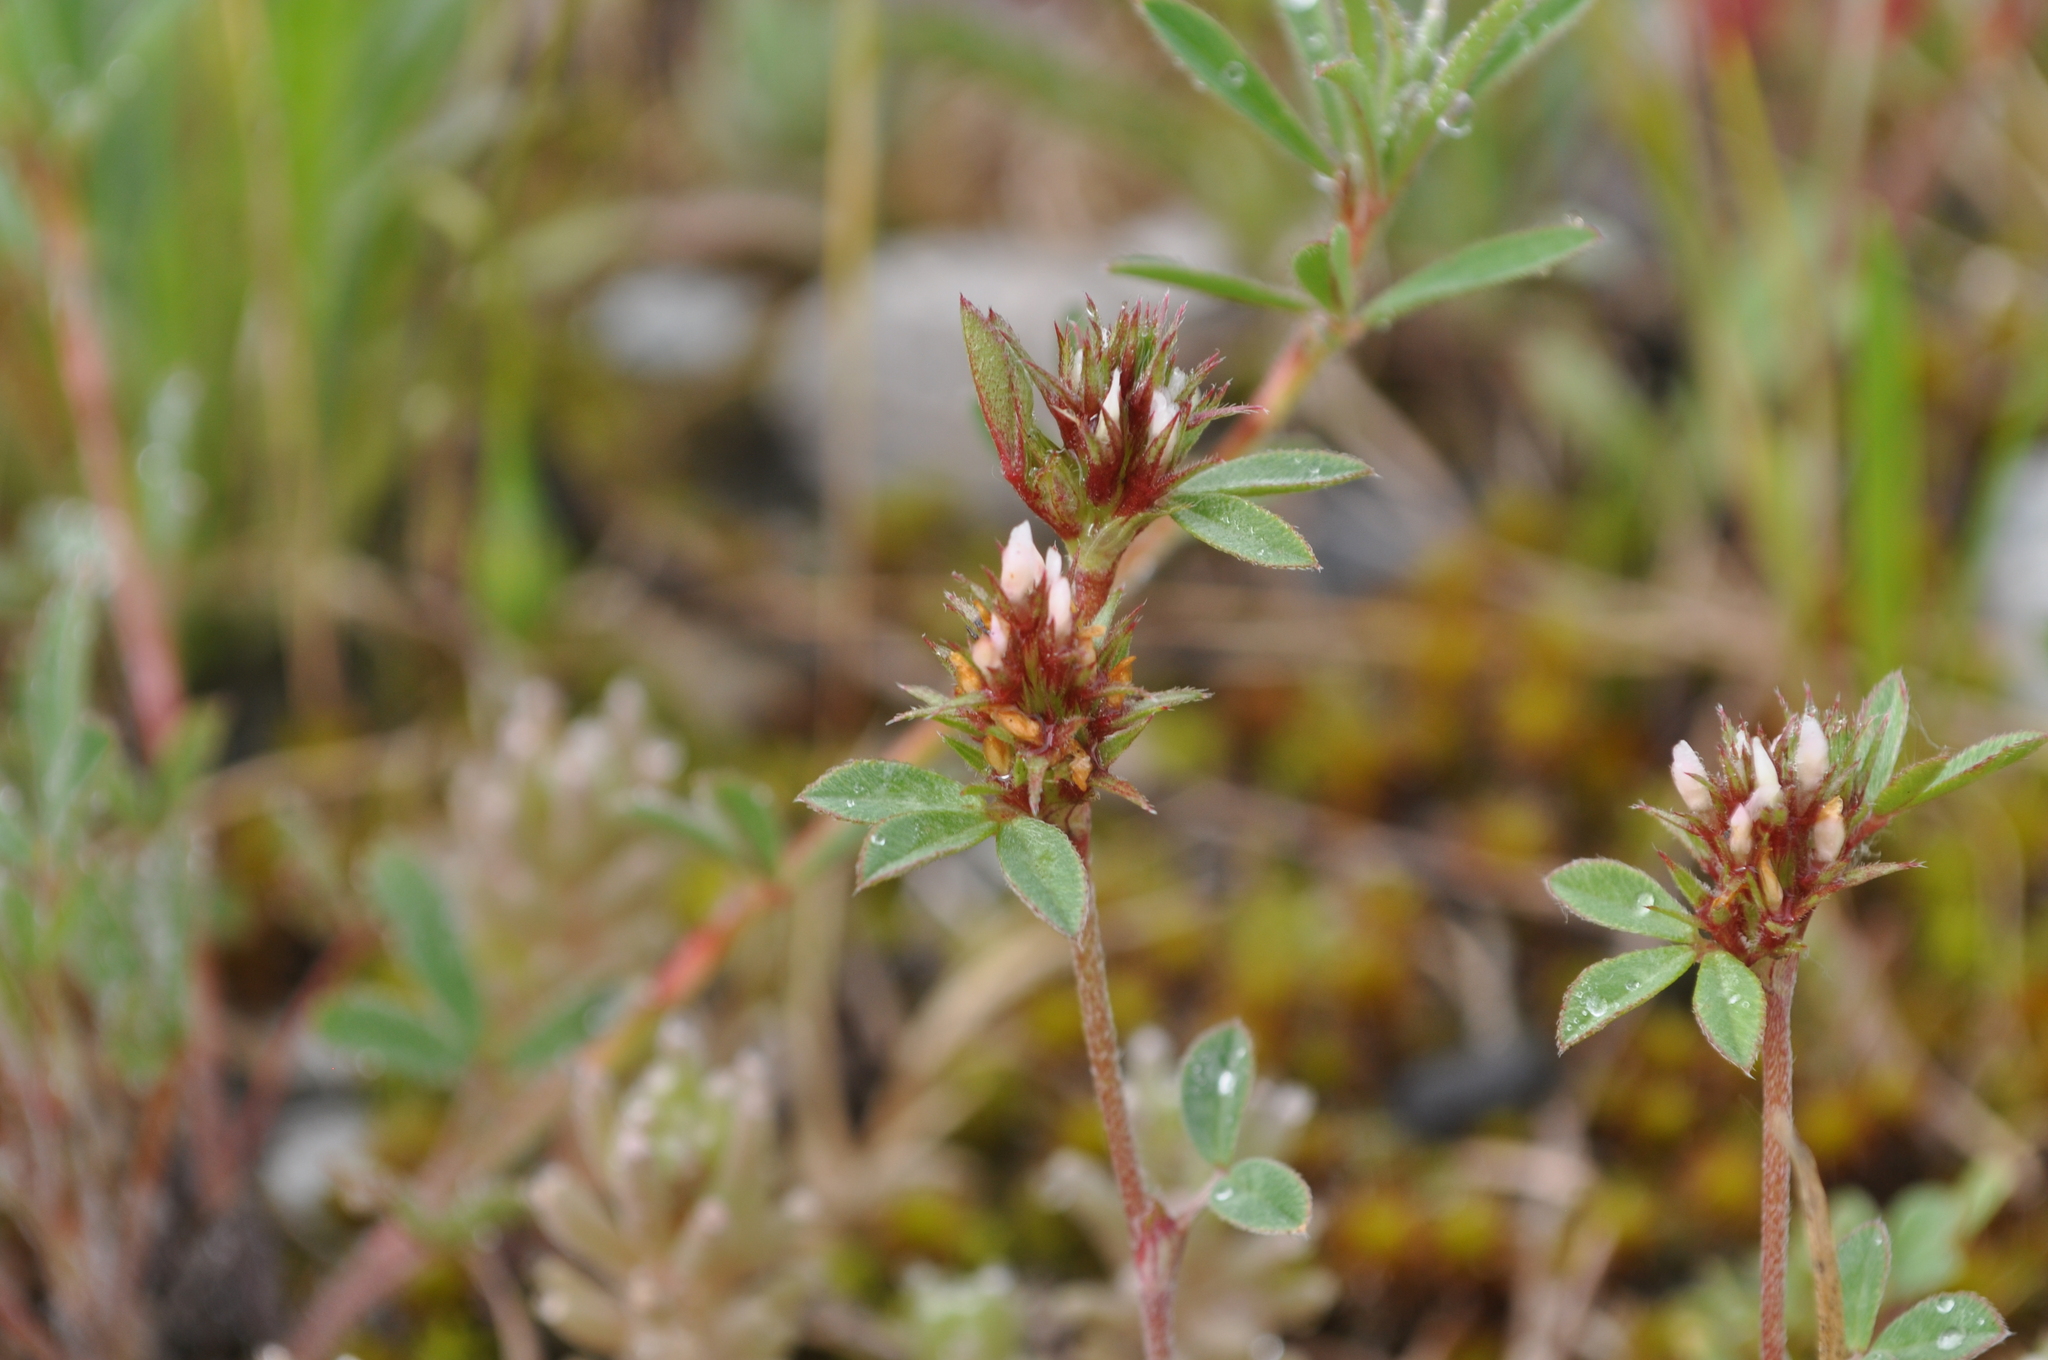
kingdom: Plantae
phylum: Tracheophyta
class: Magnoliopsida
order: Fabales
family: Fabaceae
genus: Trifolium
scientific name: Trifolium scabrum
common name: Rough clover
